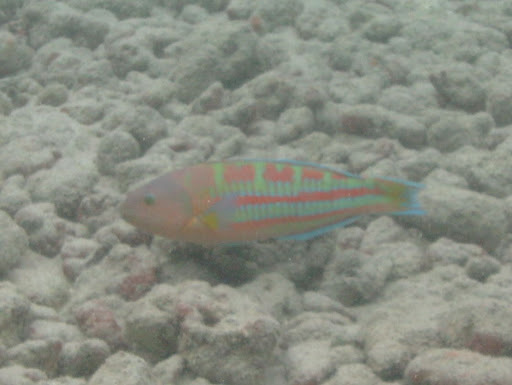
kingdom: Animalia
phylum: Chordata
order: Perciformes
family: Labridae
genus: Thalassoma
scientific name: Thalassoma trilobatum
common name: Christmas wrasse
